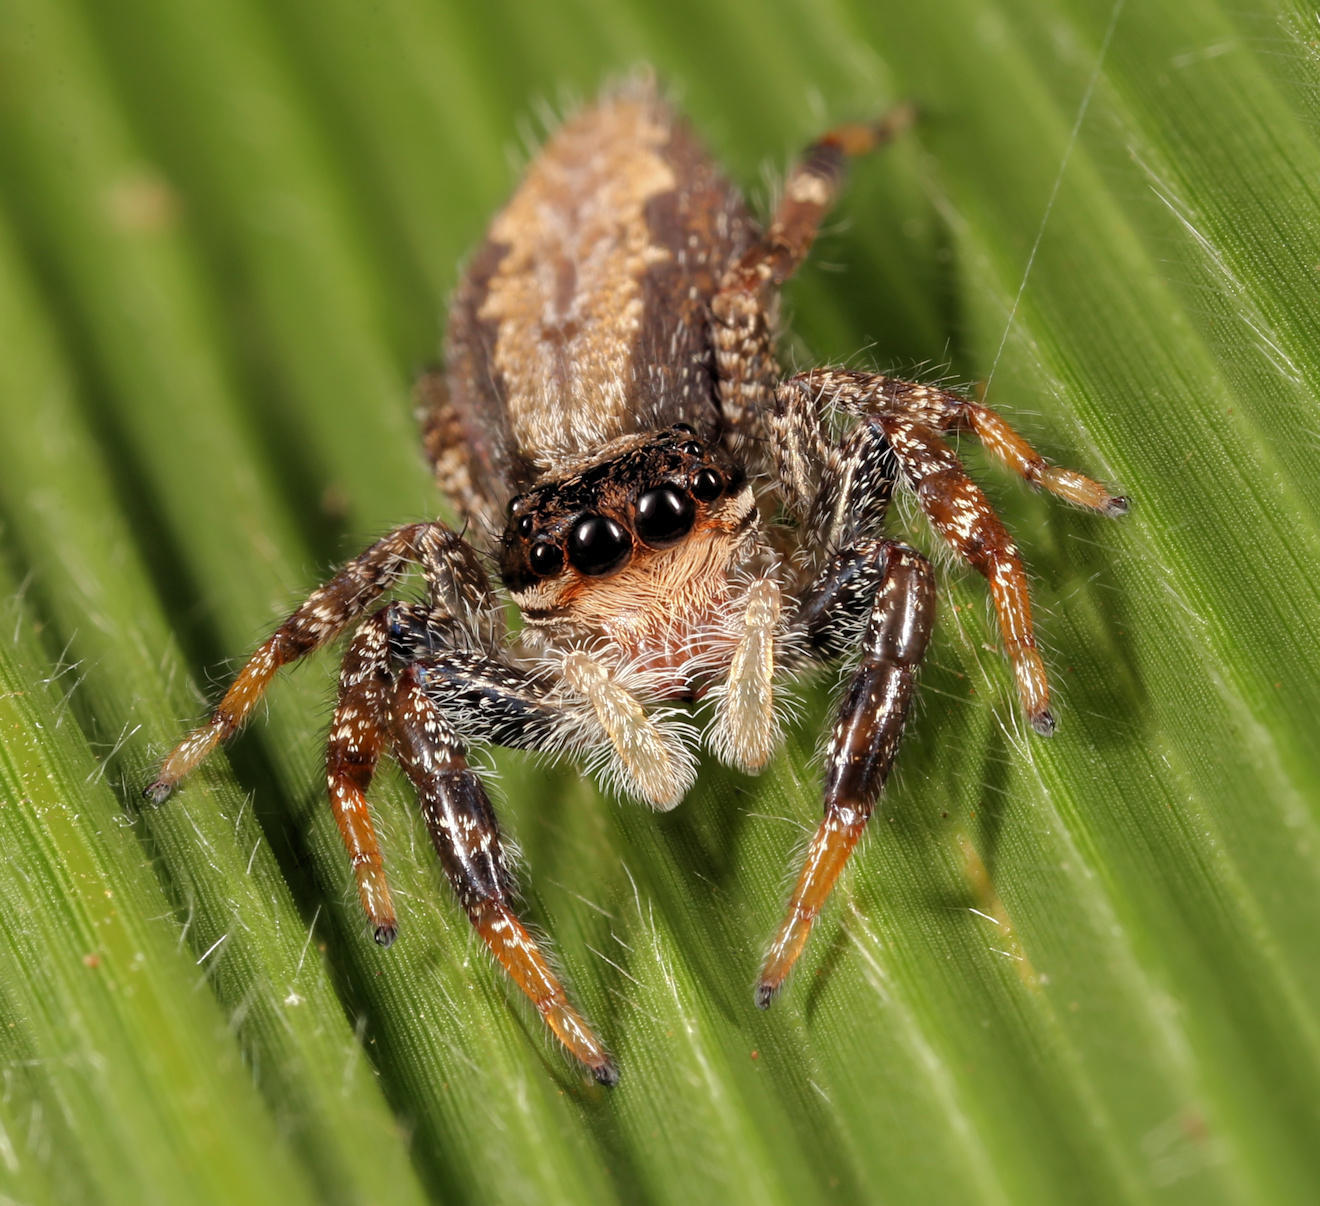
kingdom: Animalia
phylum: Arthropoda
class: Arachnida
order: Araneae
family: Salticidae
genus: Holcolaetis
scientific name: Holcolaetis zuluensis
